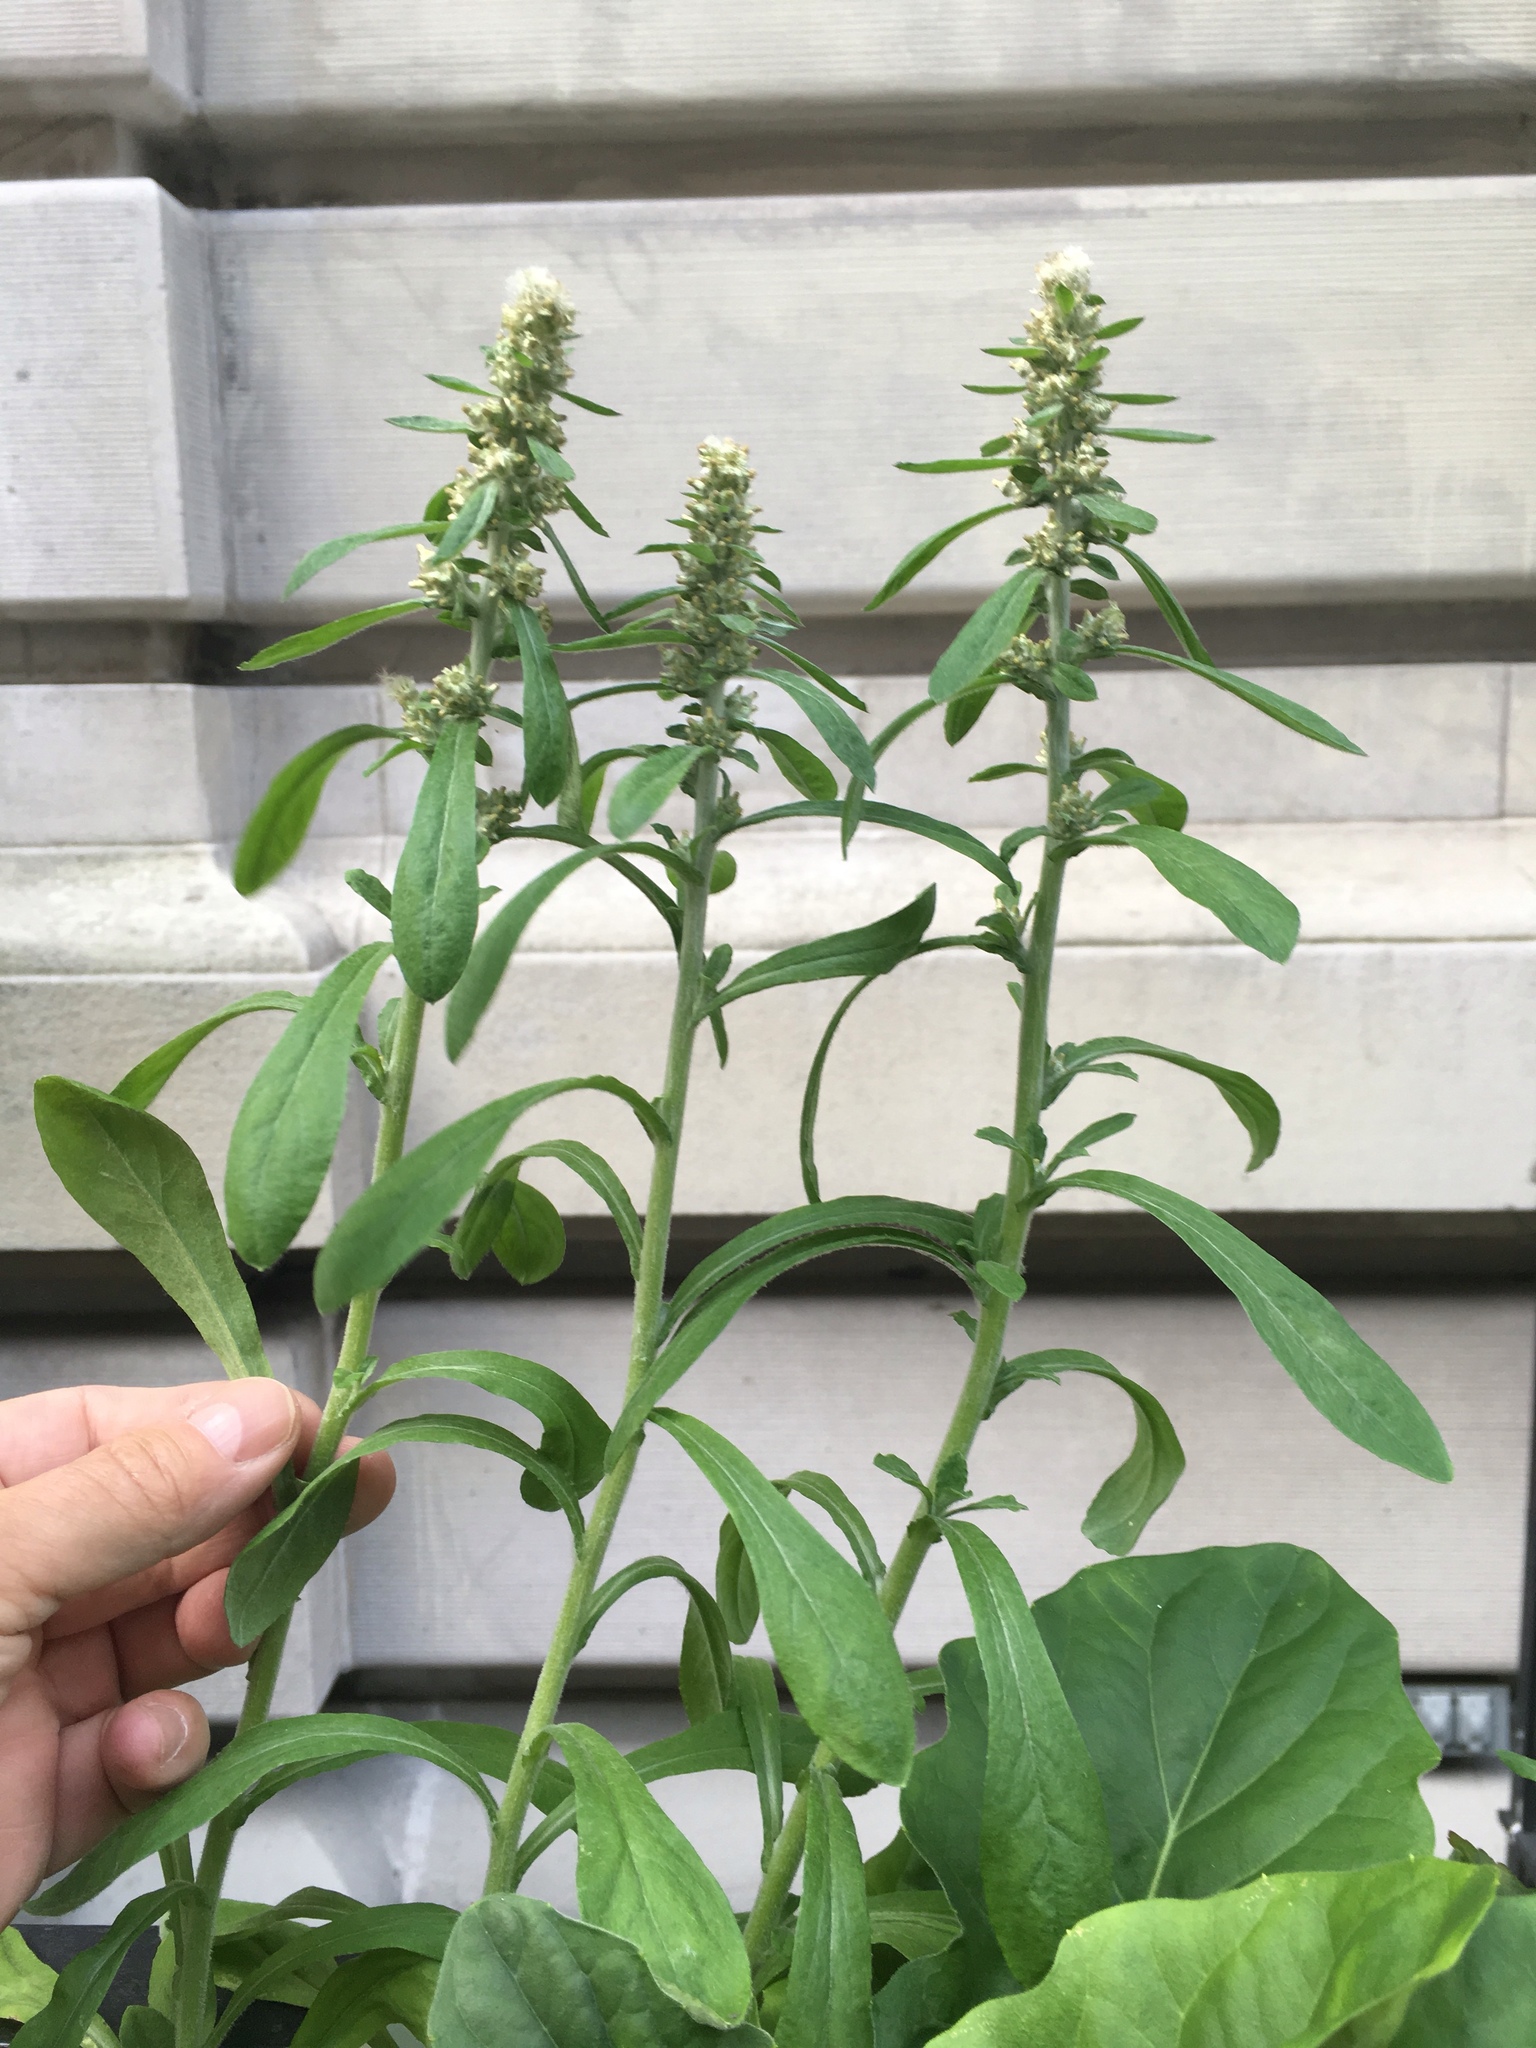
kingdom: Plantae
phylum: Tracheophyta
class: Magnoliopsida
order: Asterales
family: Asteraceae
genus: Gamochaeta
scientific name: Gamochaeta pensylvanica
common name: Pennsylvania everlasting
